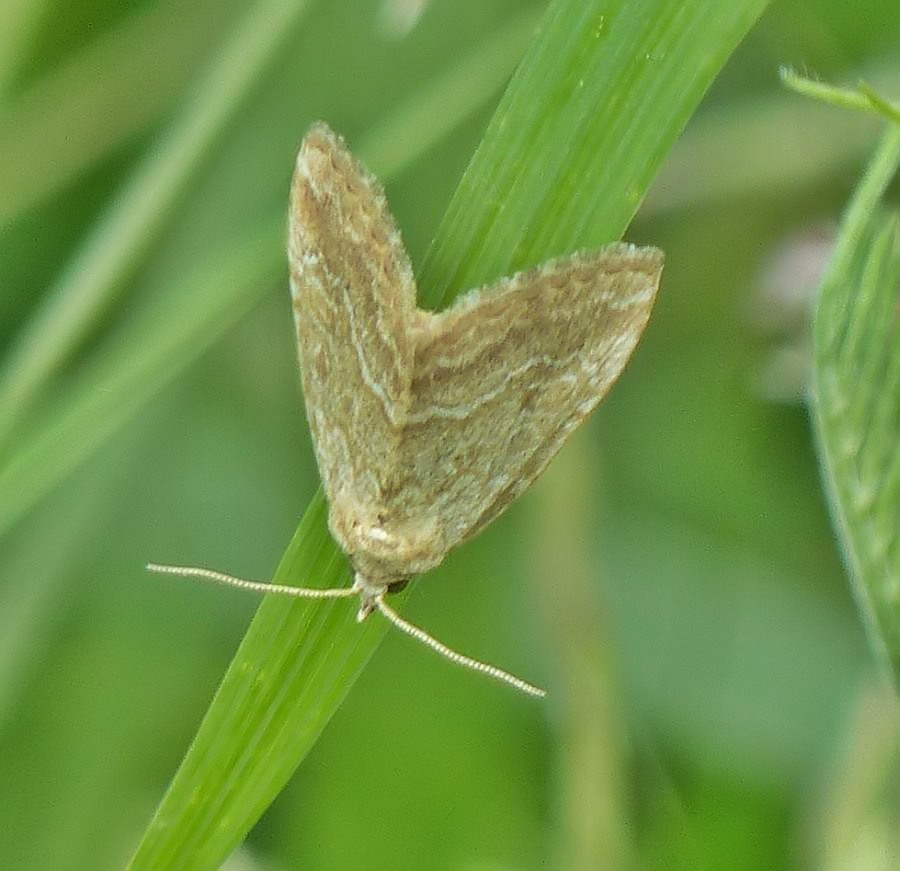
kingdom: Animalia
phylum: Arthropoda
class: Insecta
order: Lepidoptera
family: Noctuidae
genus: Protodeltote
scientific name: Protodeltote albidula
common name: Pale glyph
